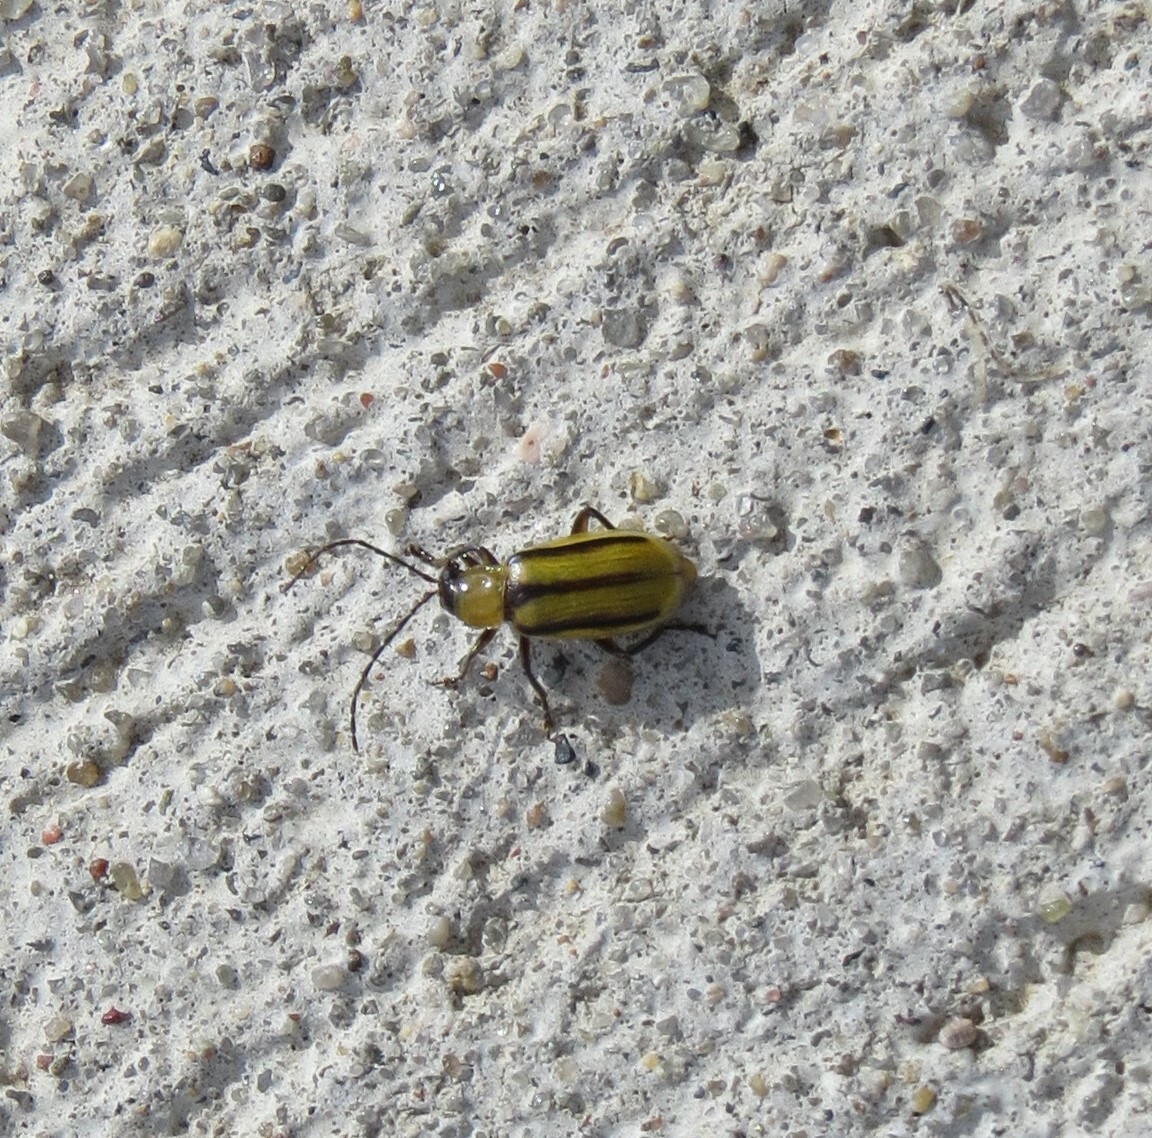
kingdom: Animalia
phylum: Arthropoda
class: Insecta
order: Coleoptera
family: Chrysomelidae
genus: Diabrotica
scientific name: Diabrotica virgifera
